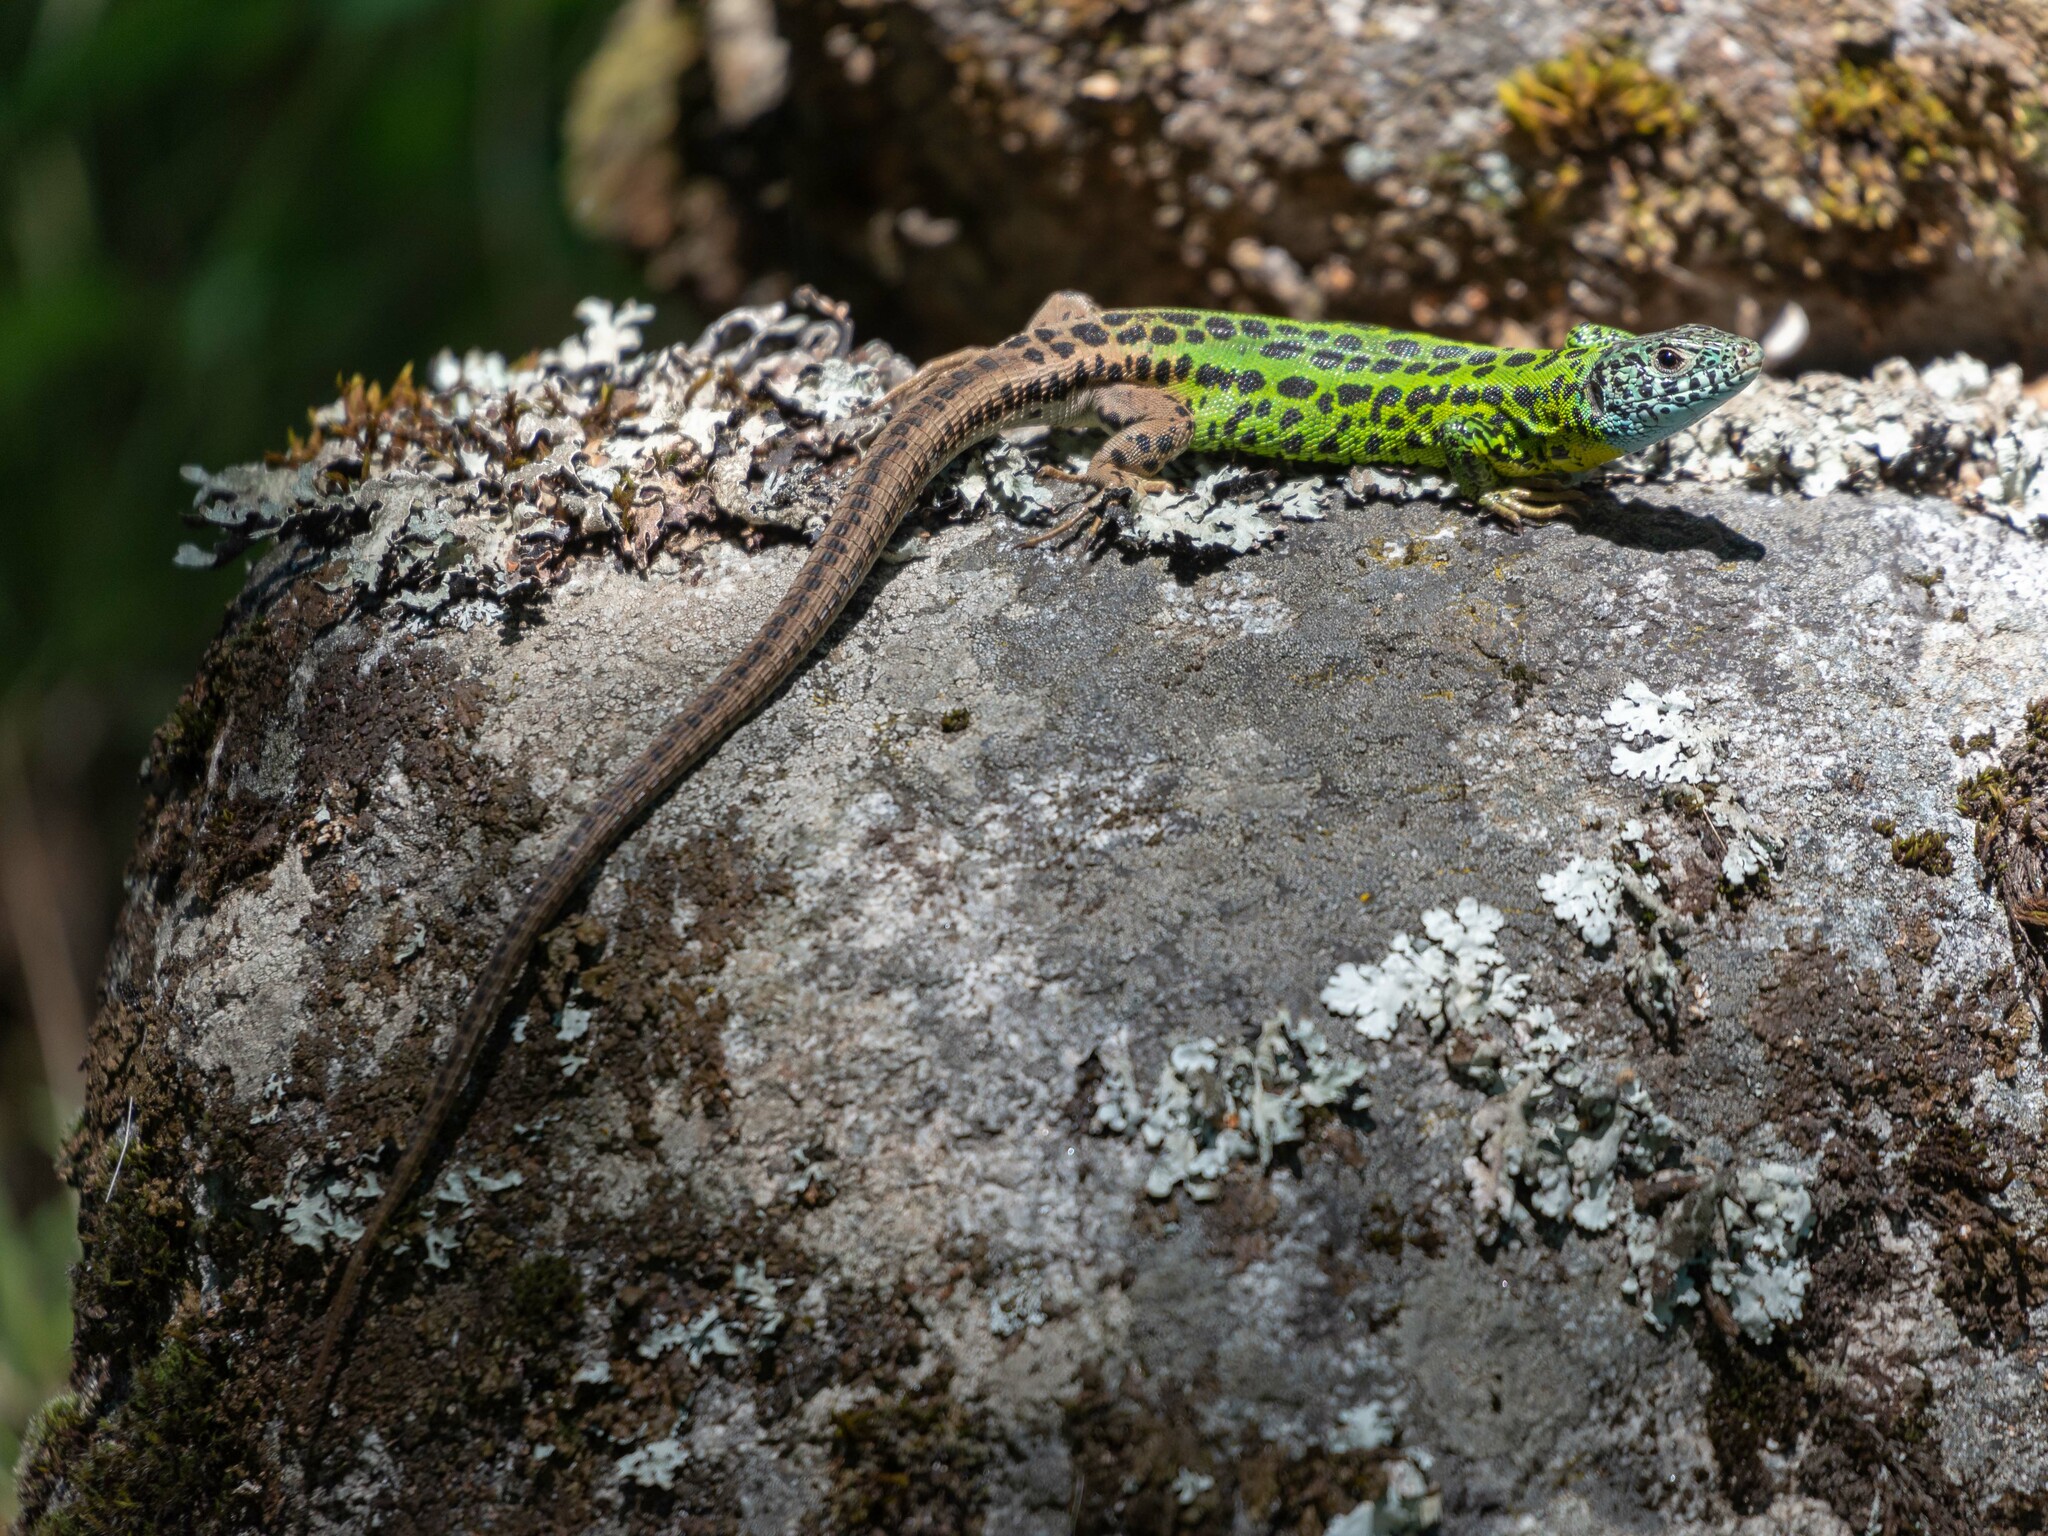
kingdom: Animalia
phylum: Chordata
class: Squamata
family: Lacertidae
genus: Lacerta
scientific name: Lacerta schreiberi
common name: Iberian emerald lizard
